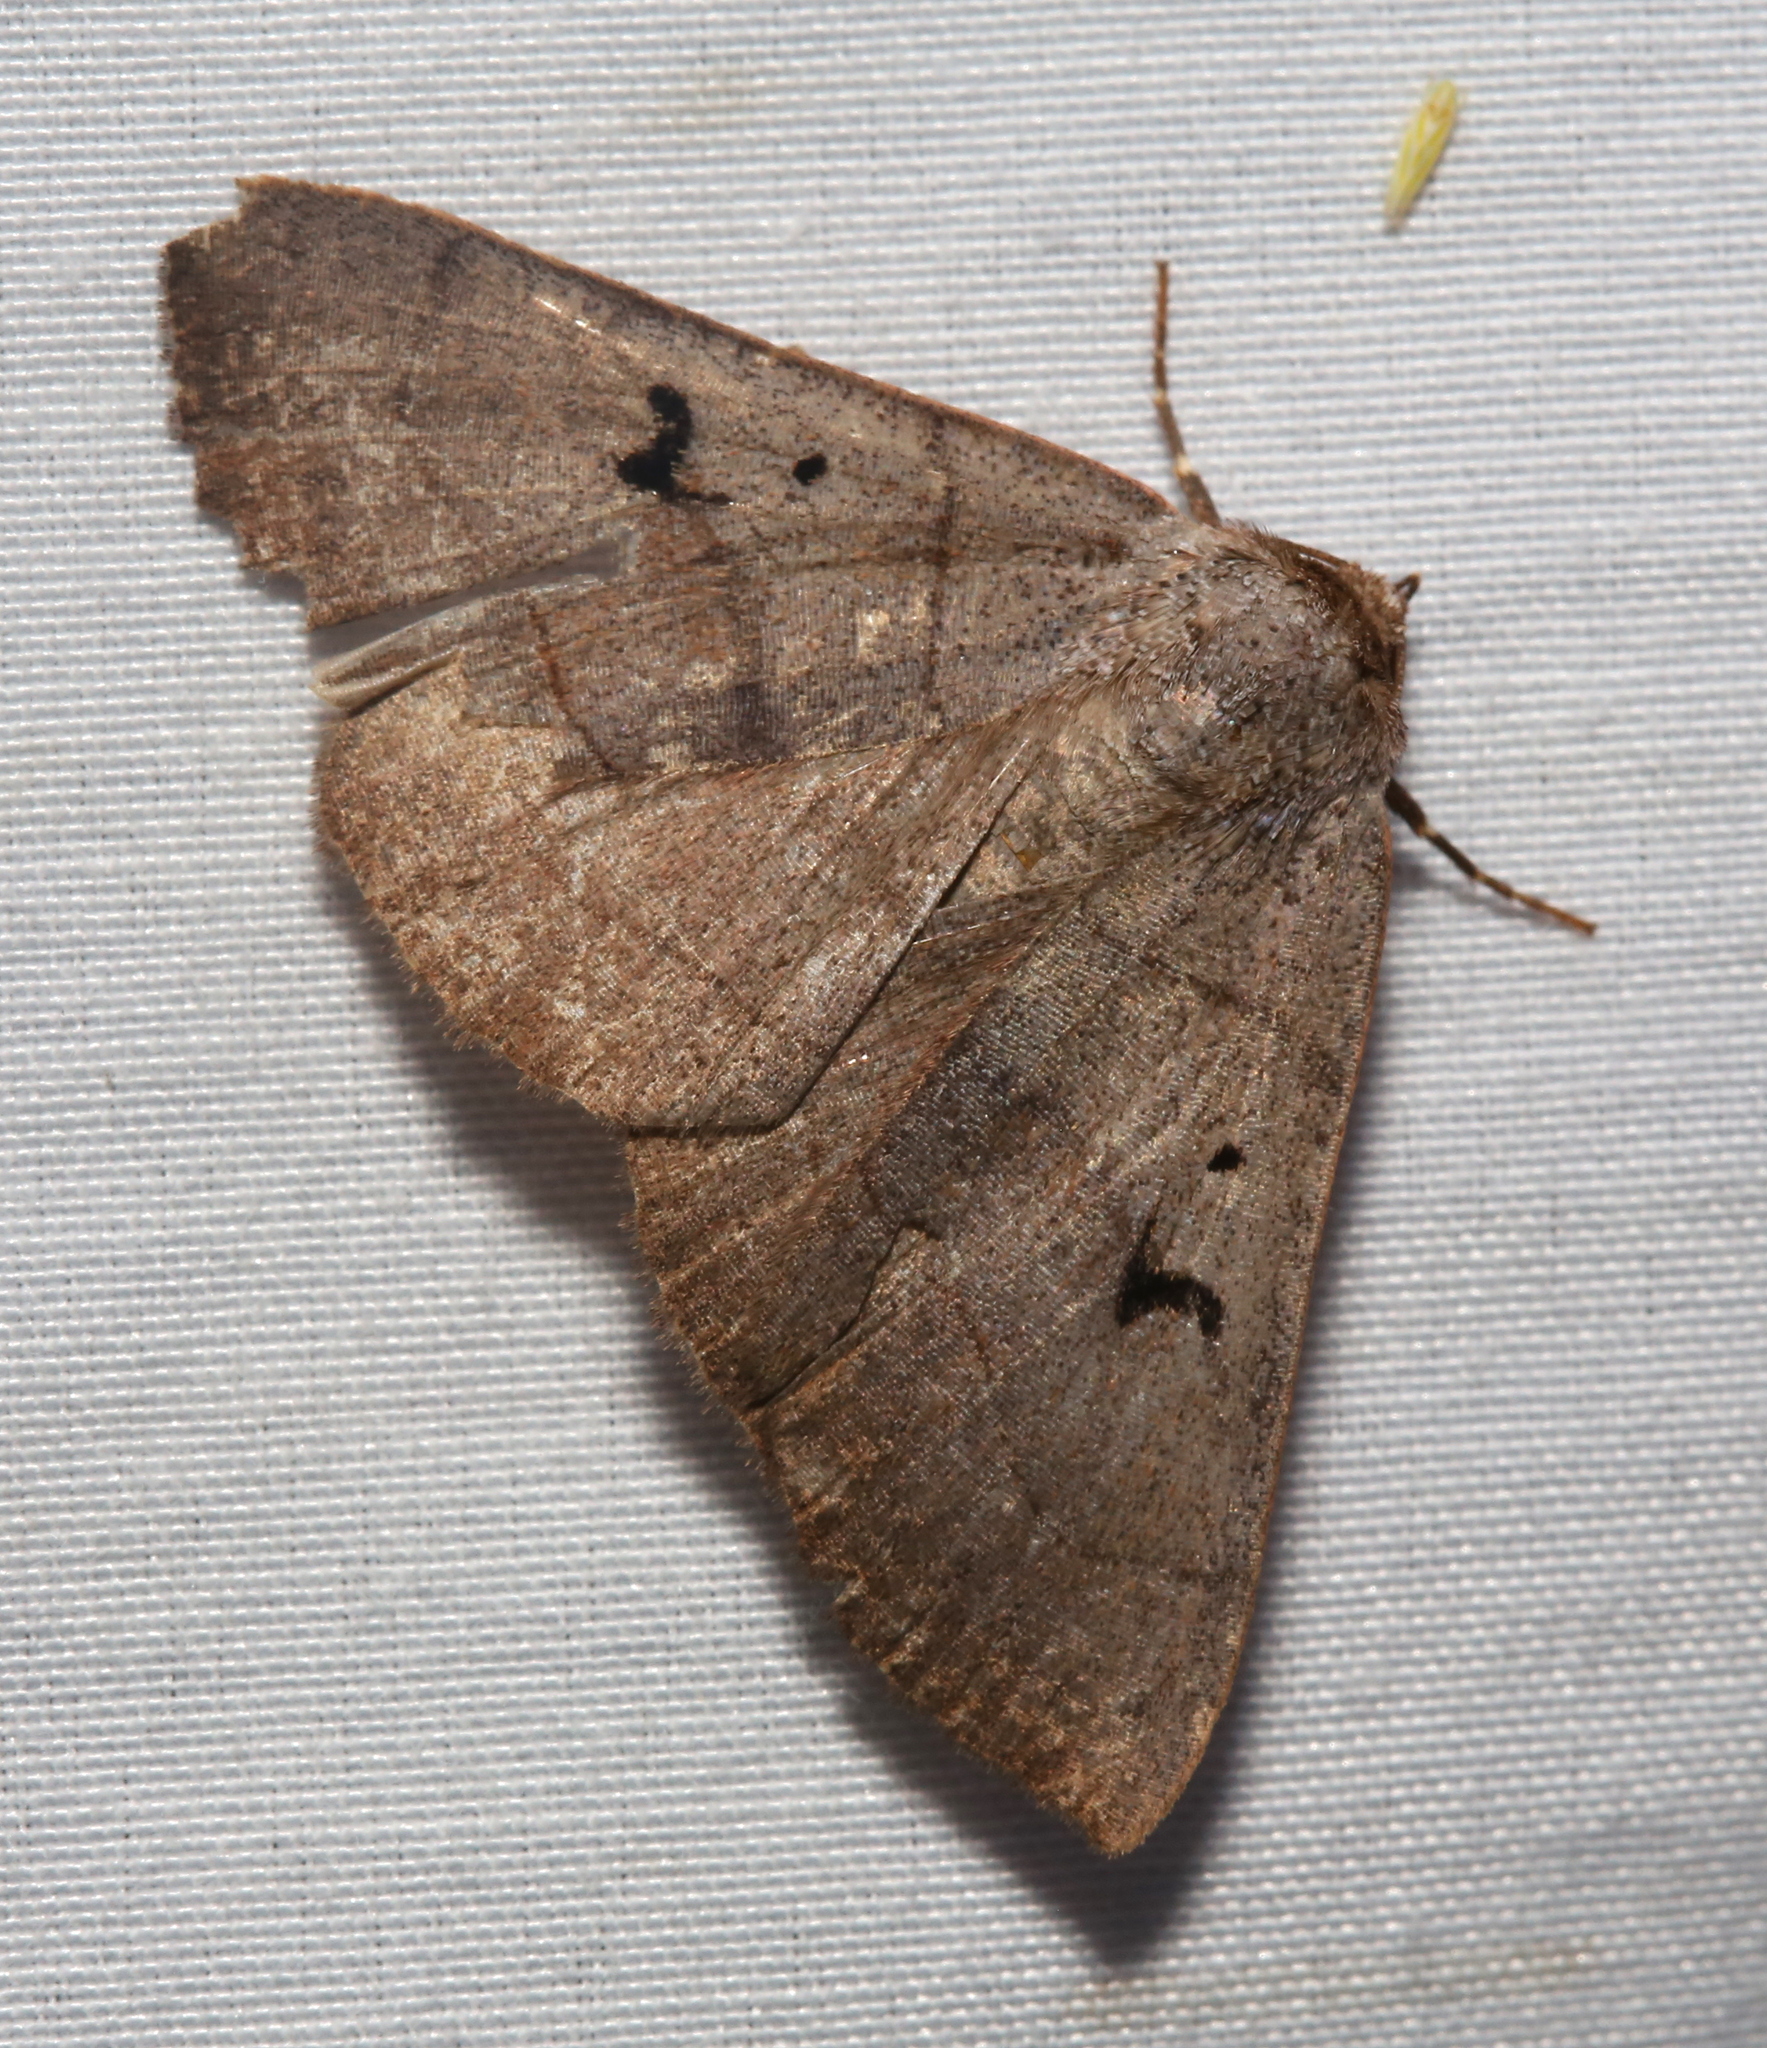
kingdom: Animalia
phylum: Arthropoda
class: Insecta
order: Lepidoptera
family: Erebidae
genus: Panopoda
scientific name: Panopoda carneicosta
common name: Brown panopoda moth
